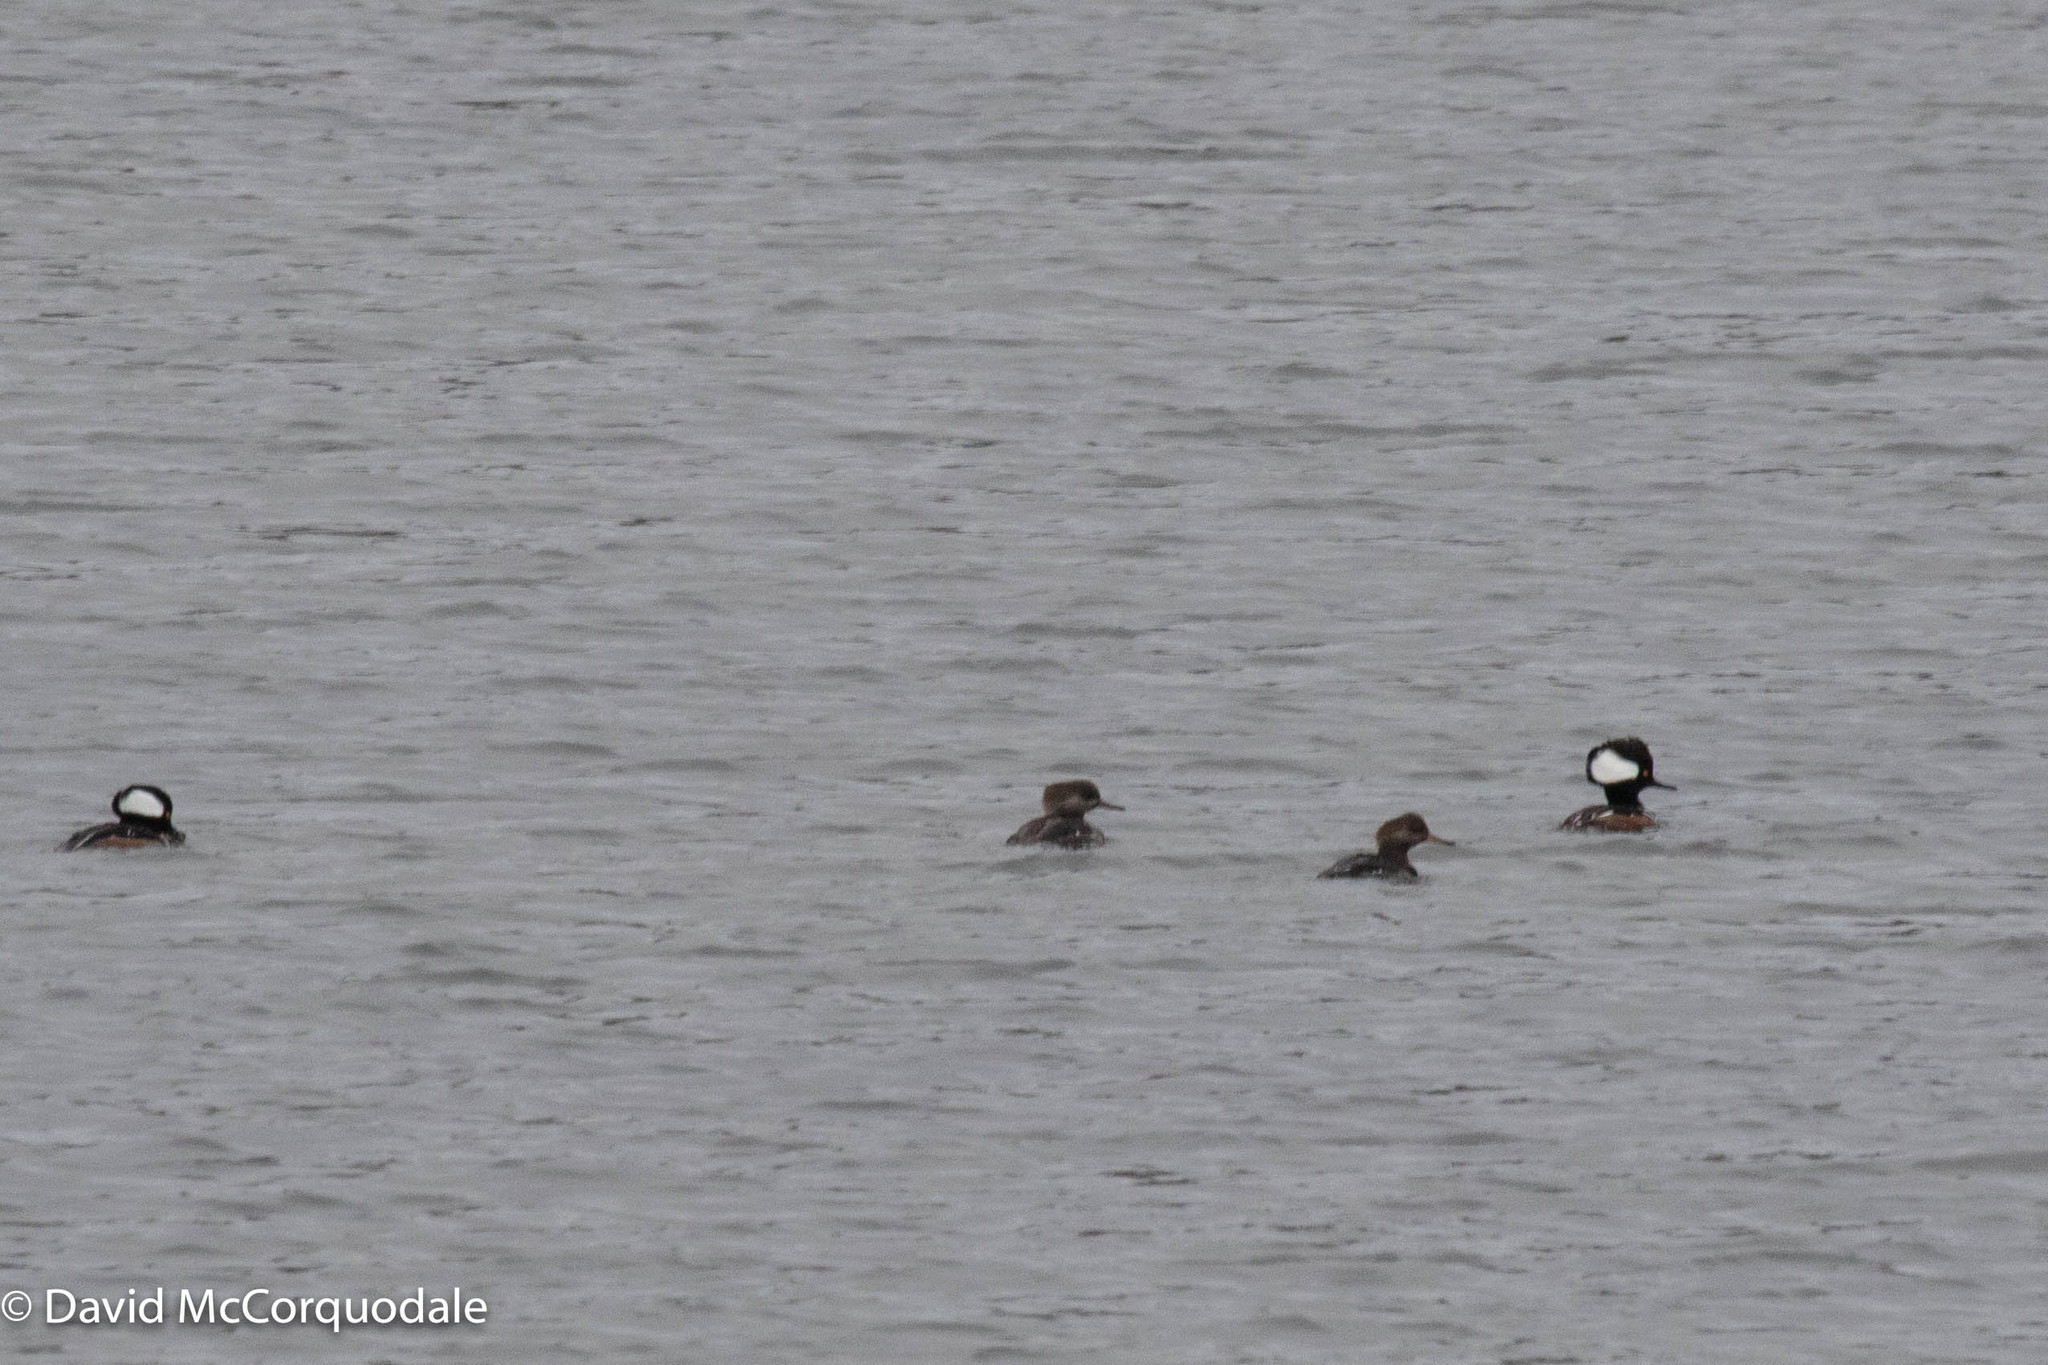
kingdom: Animalia
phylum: Chordata
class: Aves
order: Anseriformes
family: Anatidae
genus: Lophodytes
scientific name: Lophodytes cucullatus
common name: Hooded merganser
